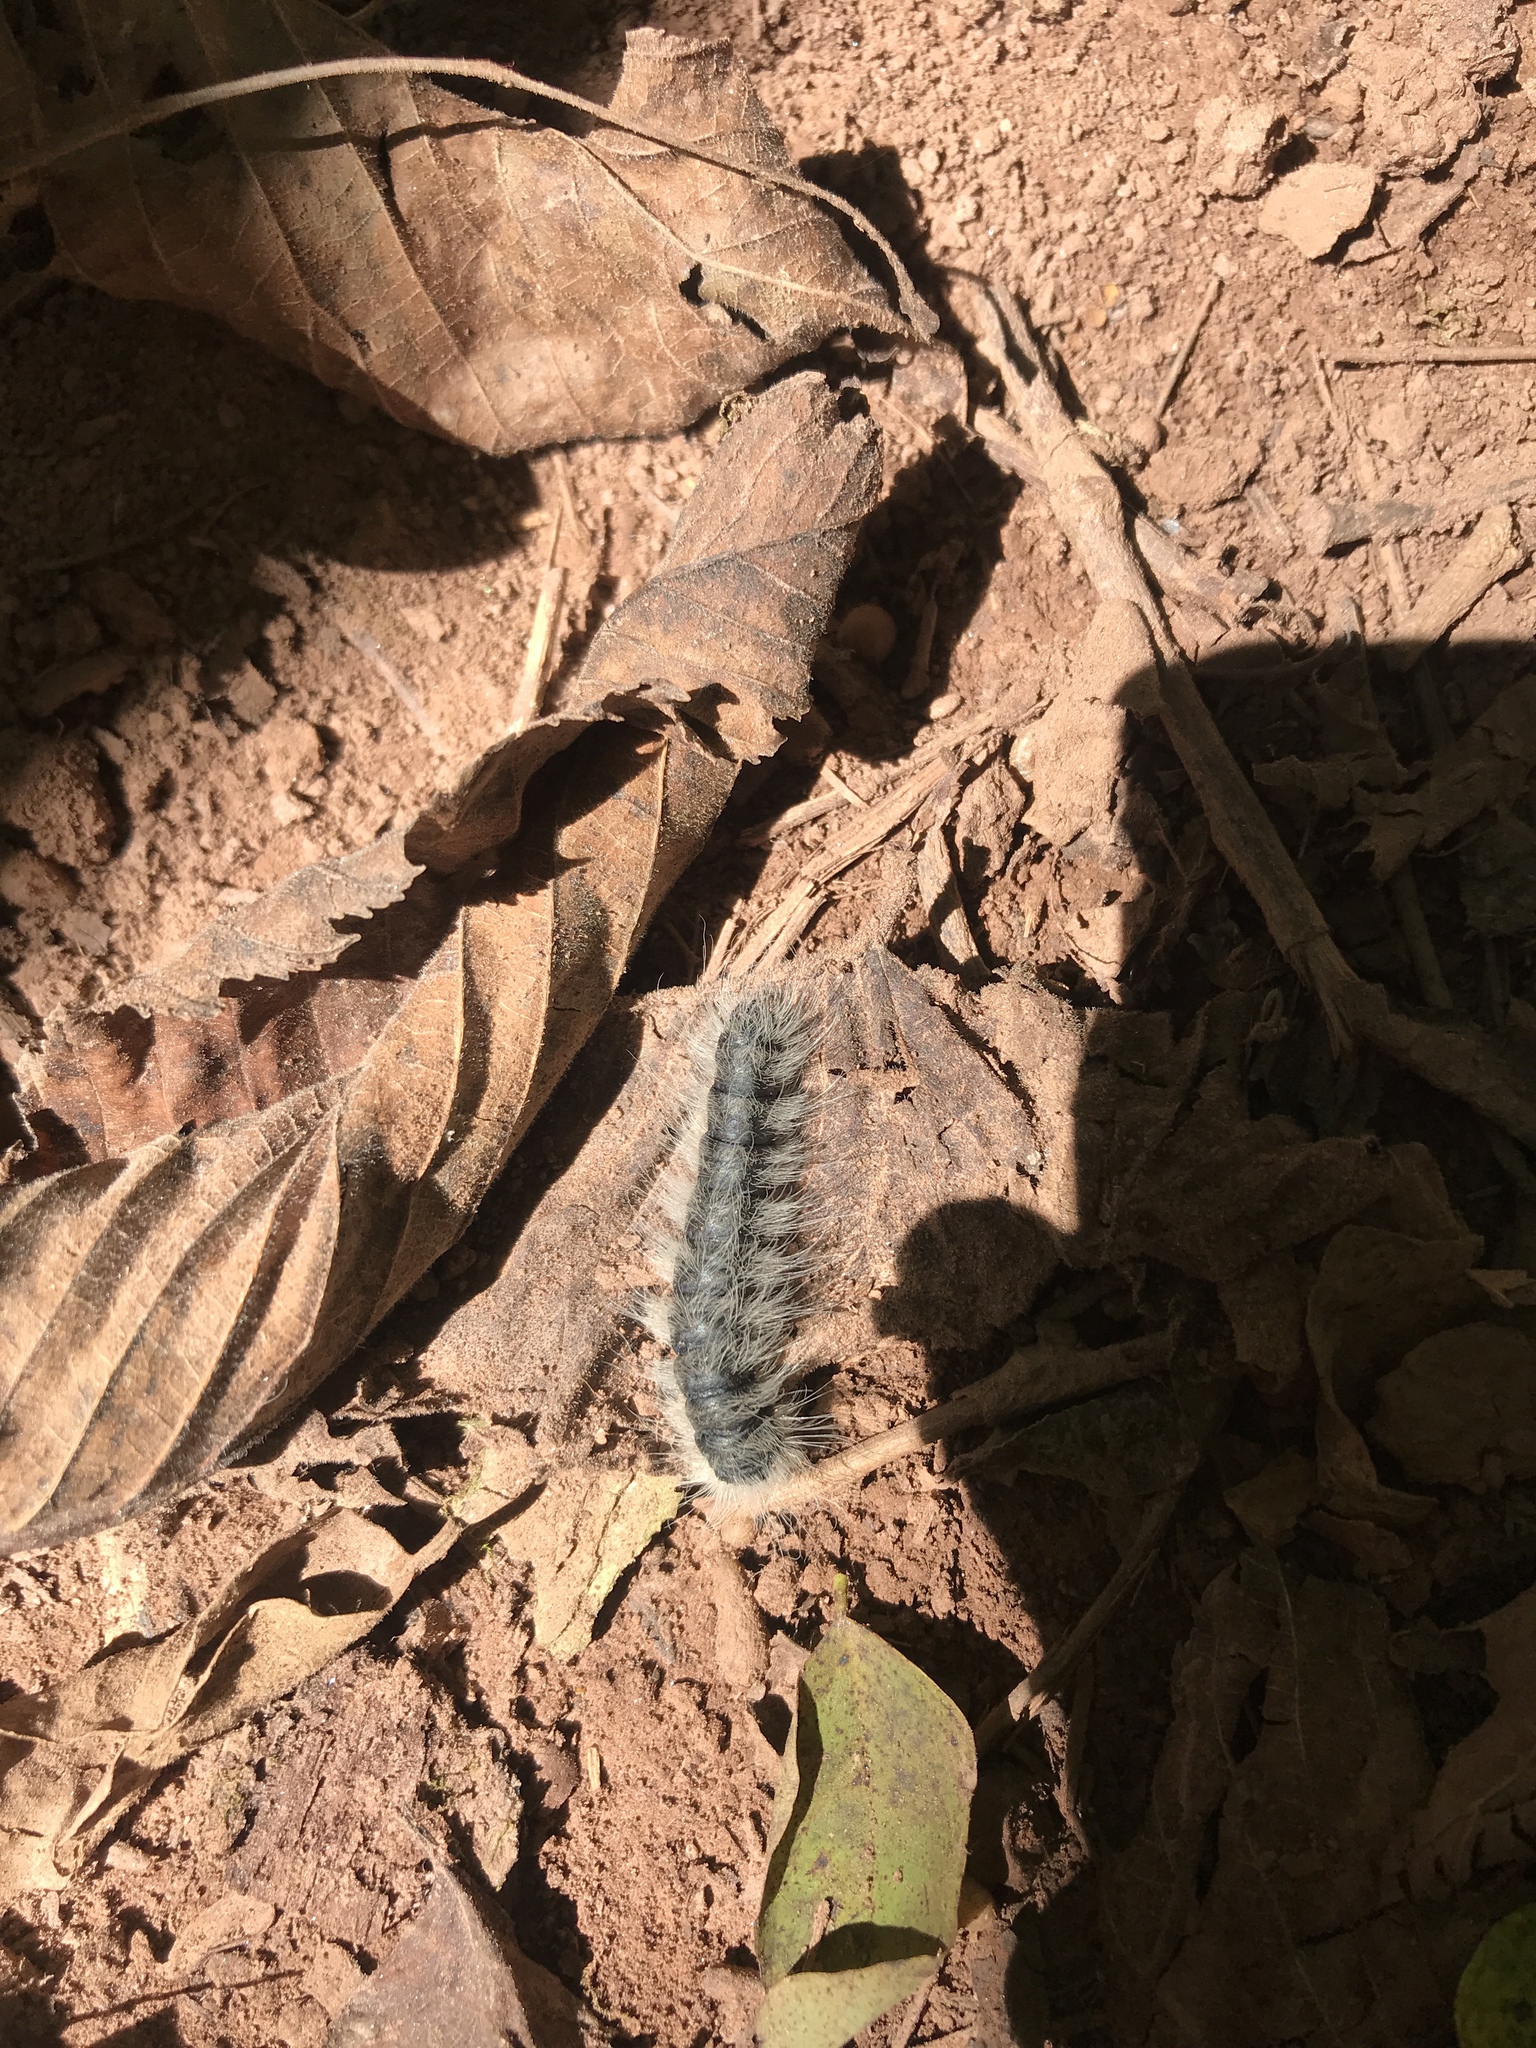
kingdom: Animalia
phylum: Arthropoda
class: Insecta
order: Lepidoptera
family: Notodontidae
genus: Datana
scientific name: Datana integerrima
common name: Walnut caterpillar
